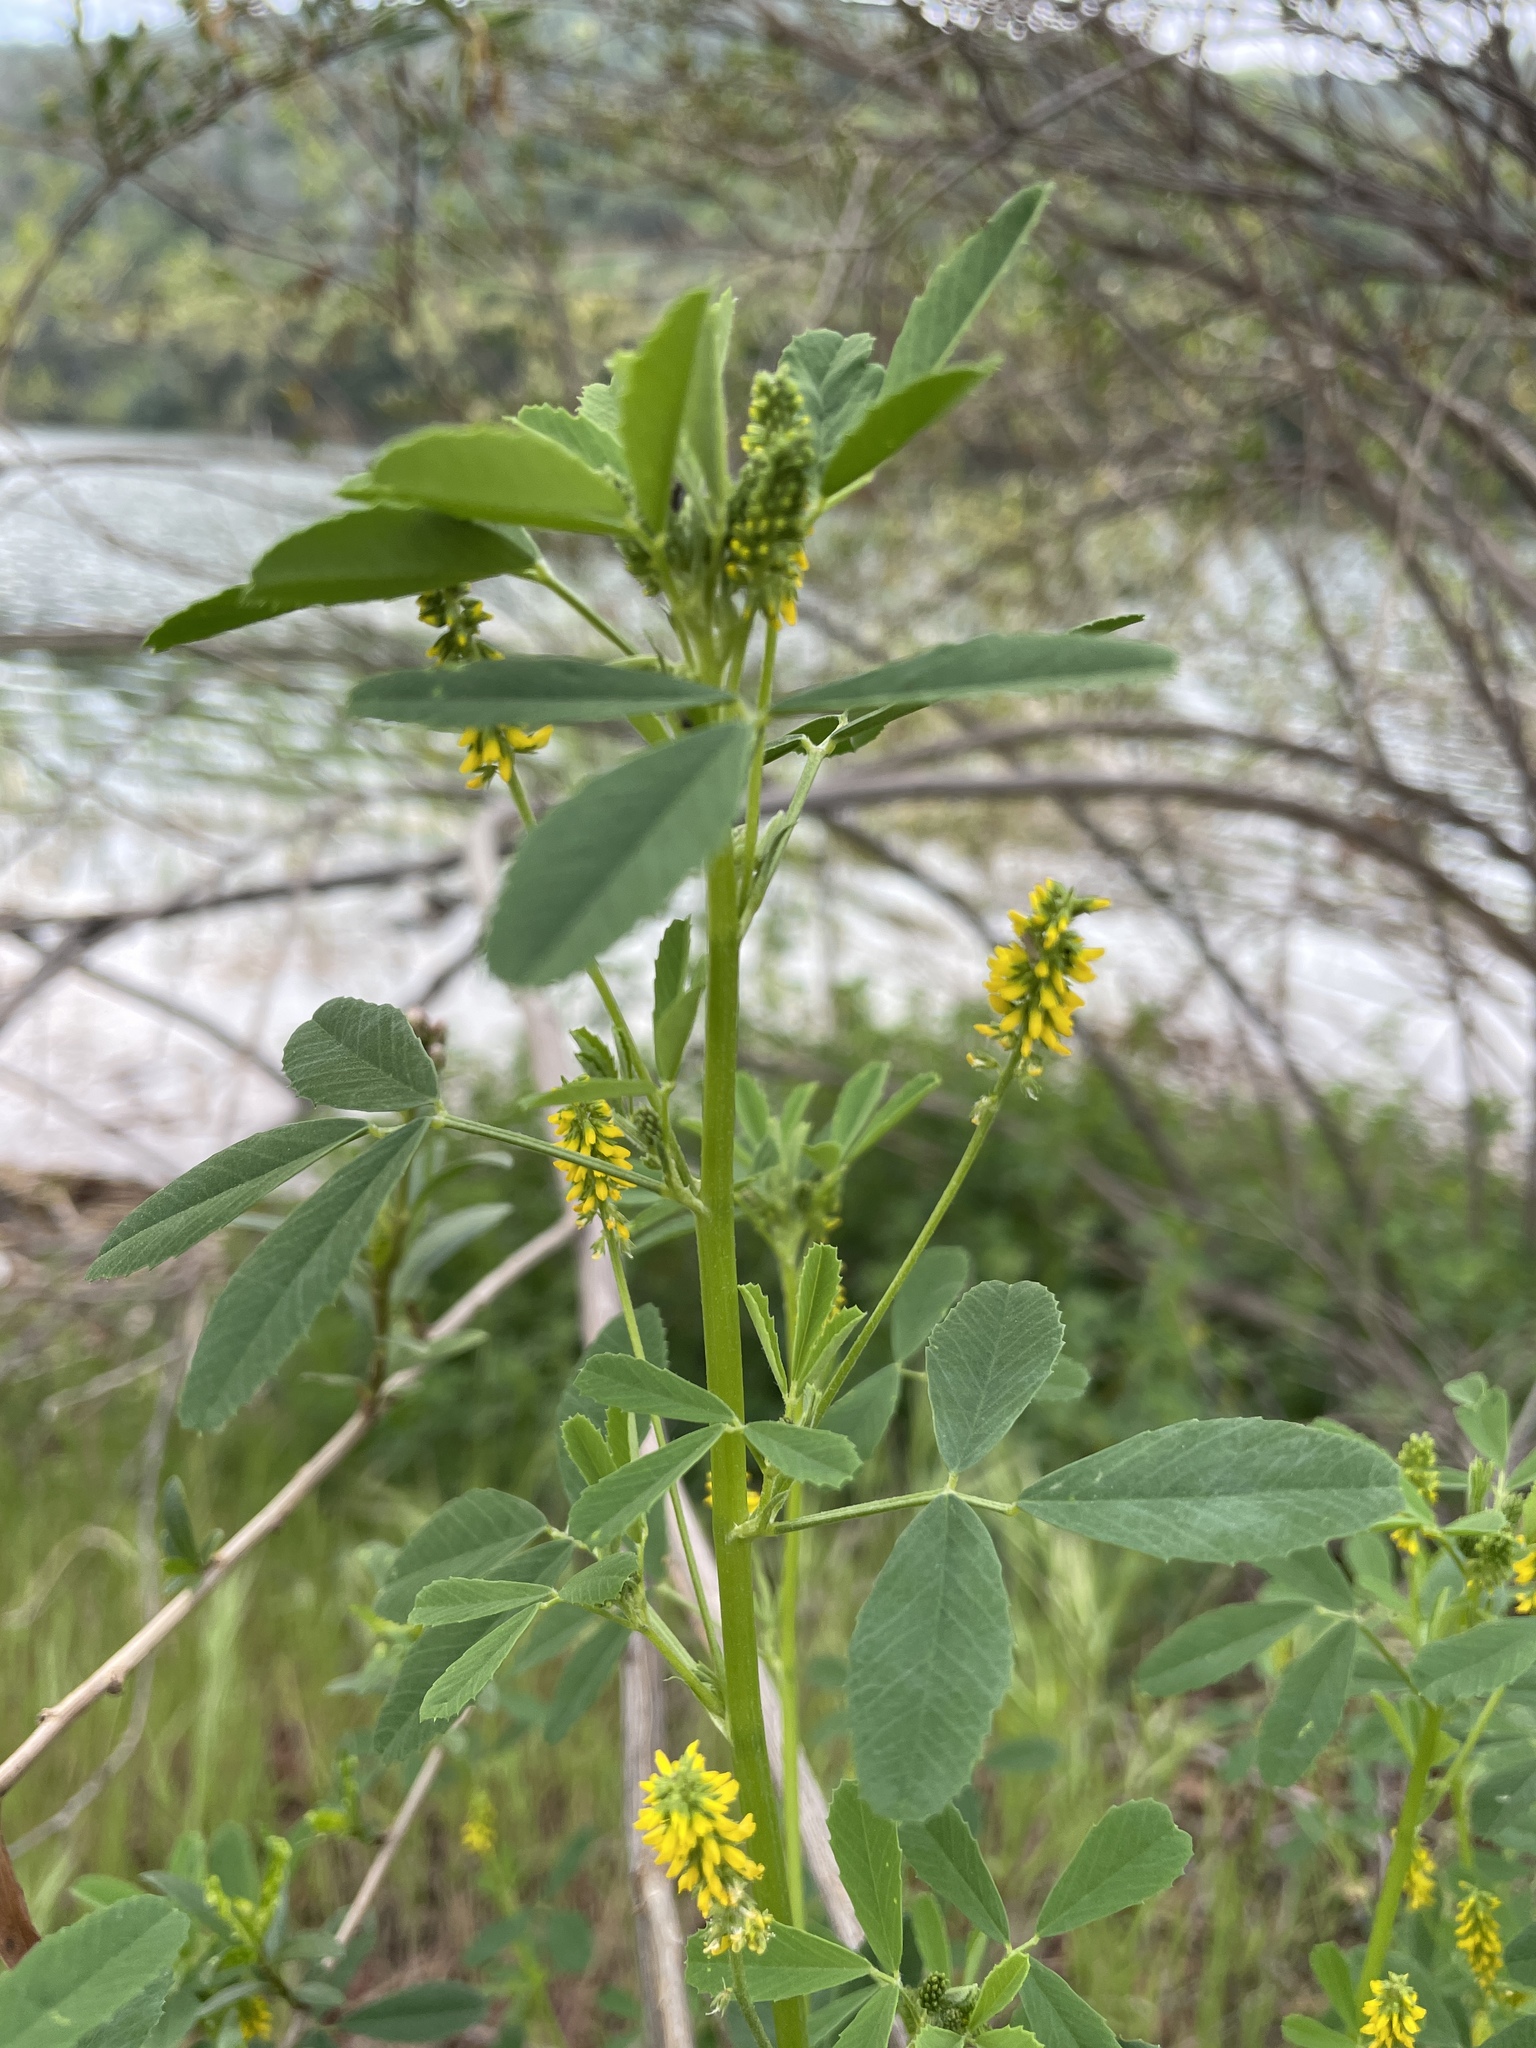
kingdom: Plantae
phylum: Tracheophyta
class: Magnoliopsida
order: Fabales
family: Fabaceae
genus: Melilotus
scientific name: Melilotus indicus
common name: Small melilot
